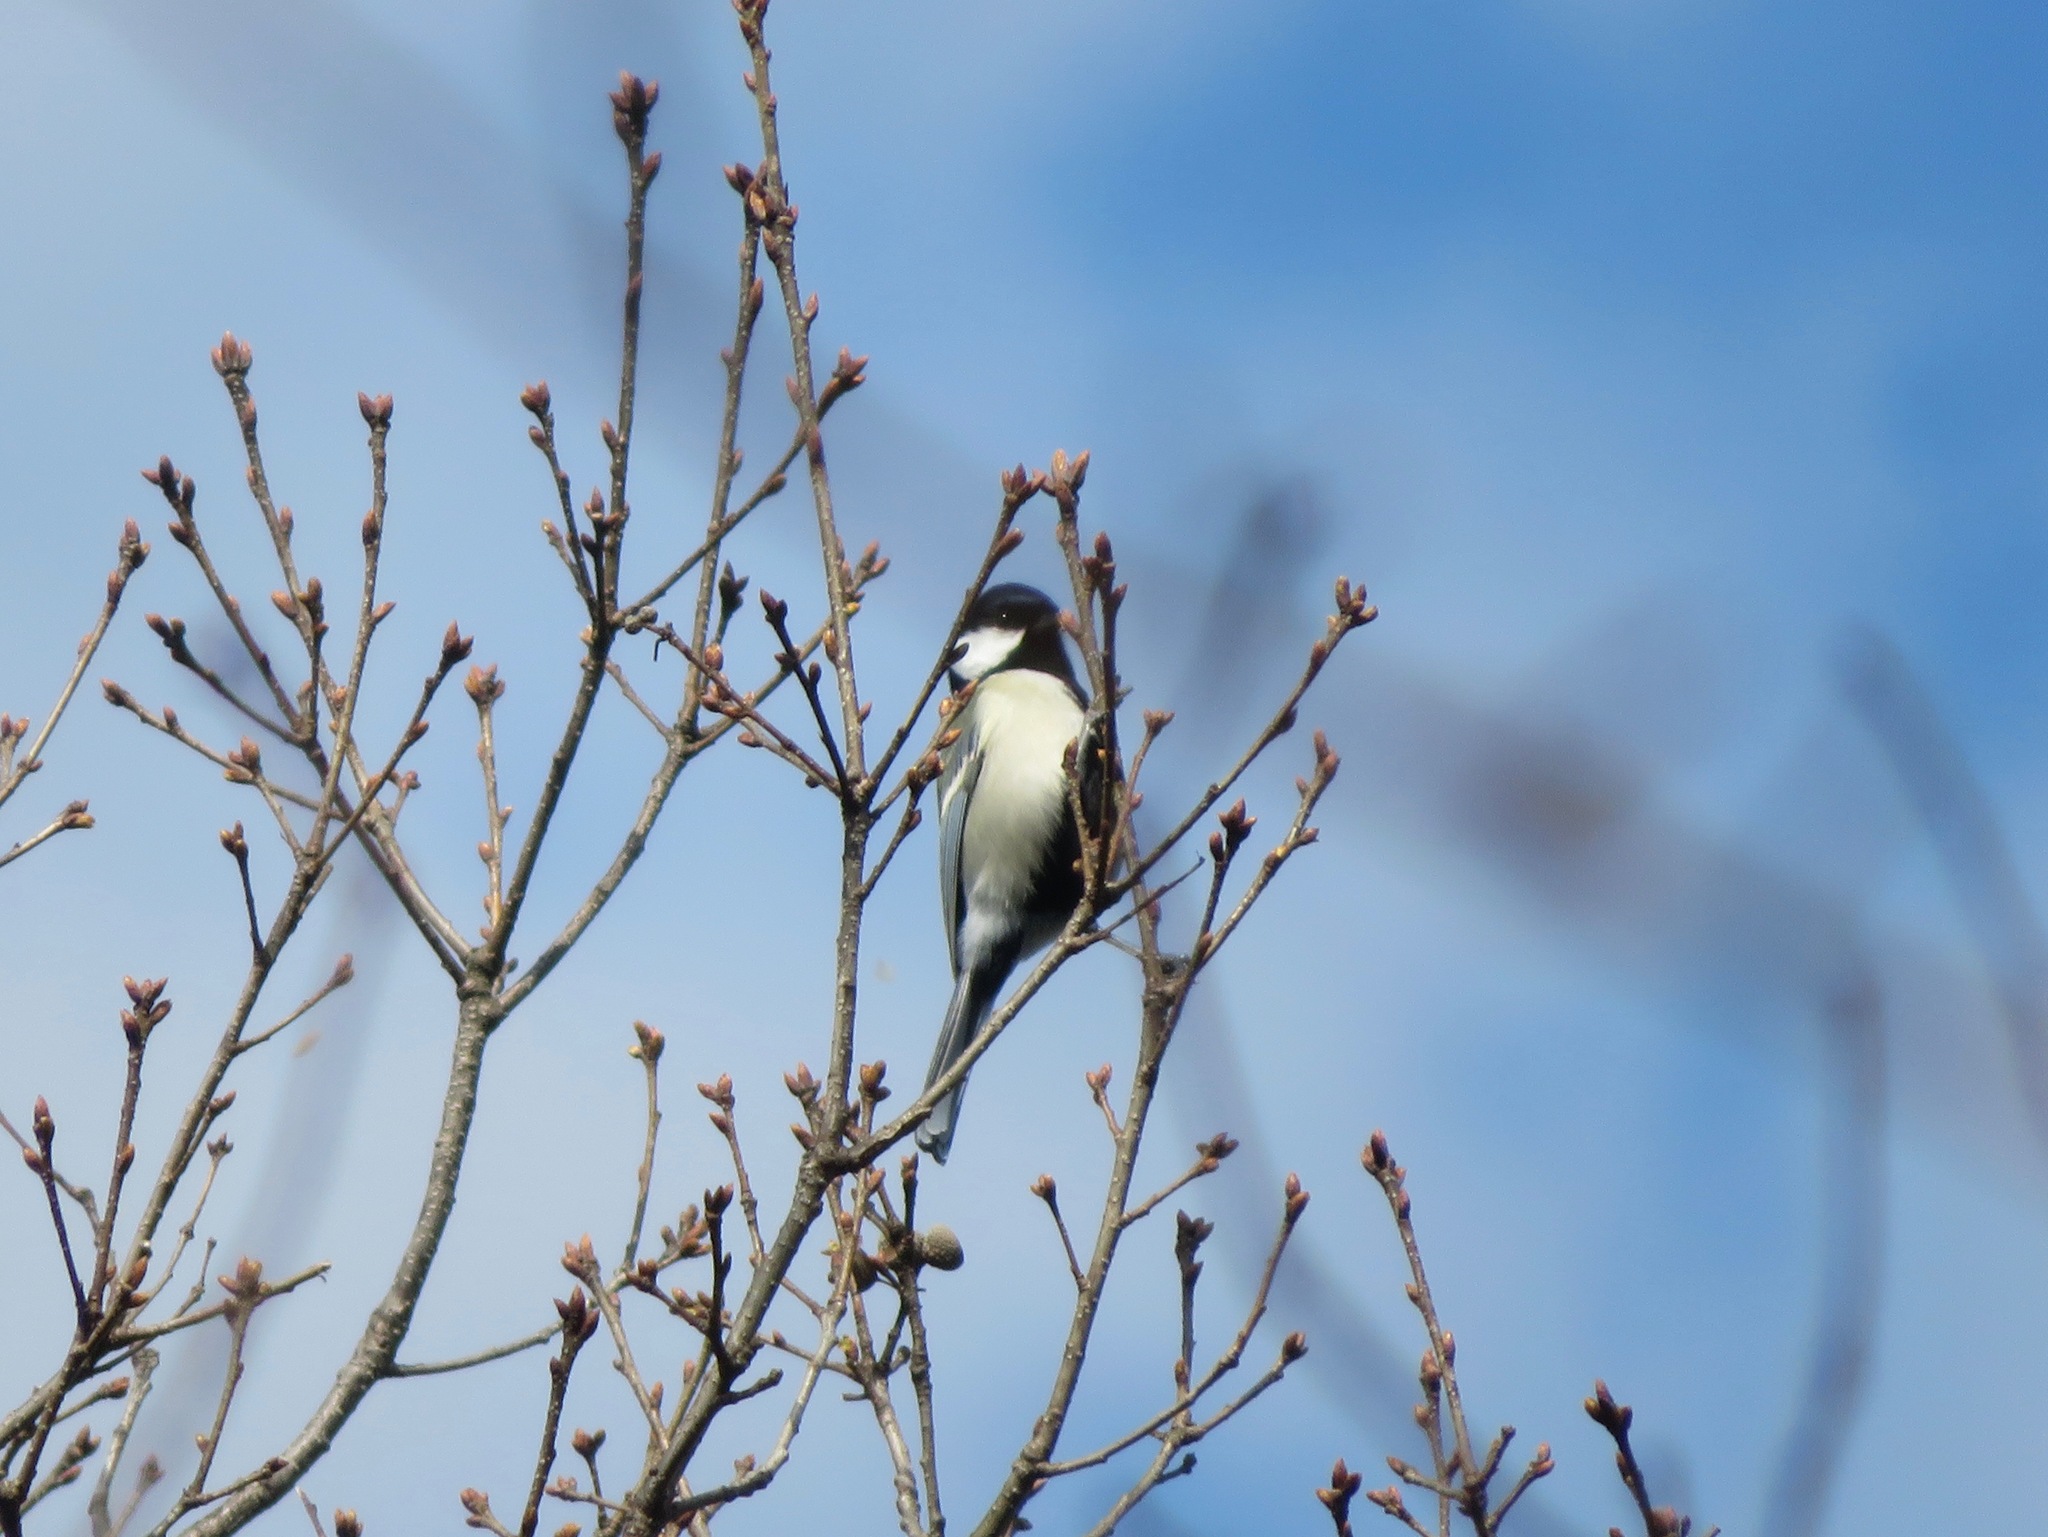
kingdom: Animalia
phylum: Chordata
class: Aves
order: Passeriformes
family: Paridae
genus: Parus
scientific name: Parus minor
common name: Japanese tit
